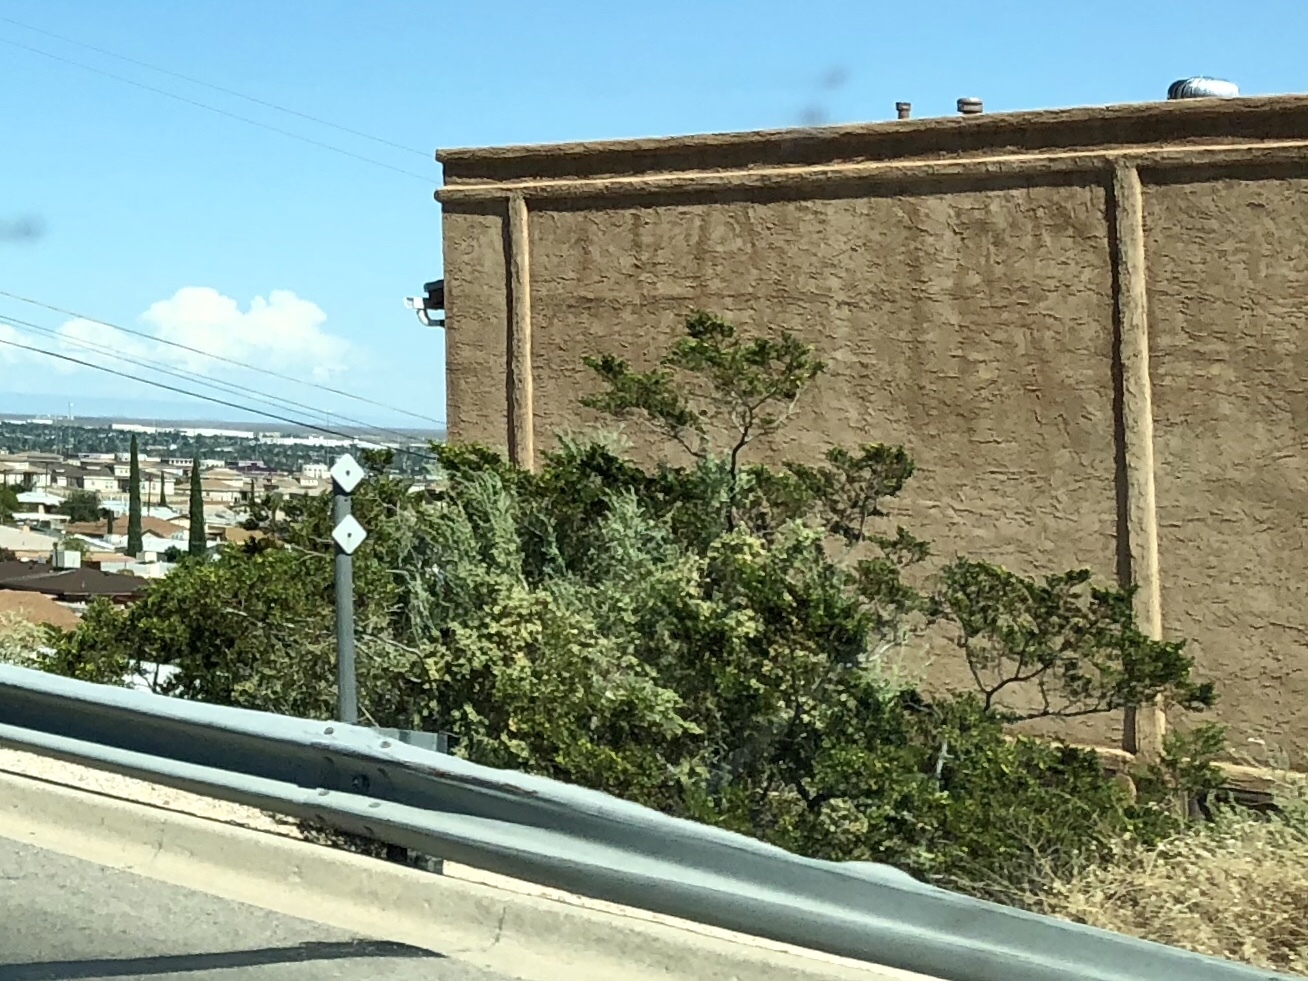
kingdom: Plantae
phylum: Tracheophyta
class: Magnoliopsida
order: Zygophyllales
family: Zygophyllaceae
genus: Larrea
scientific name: Larrea tridentata
